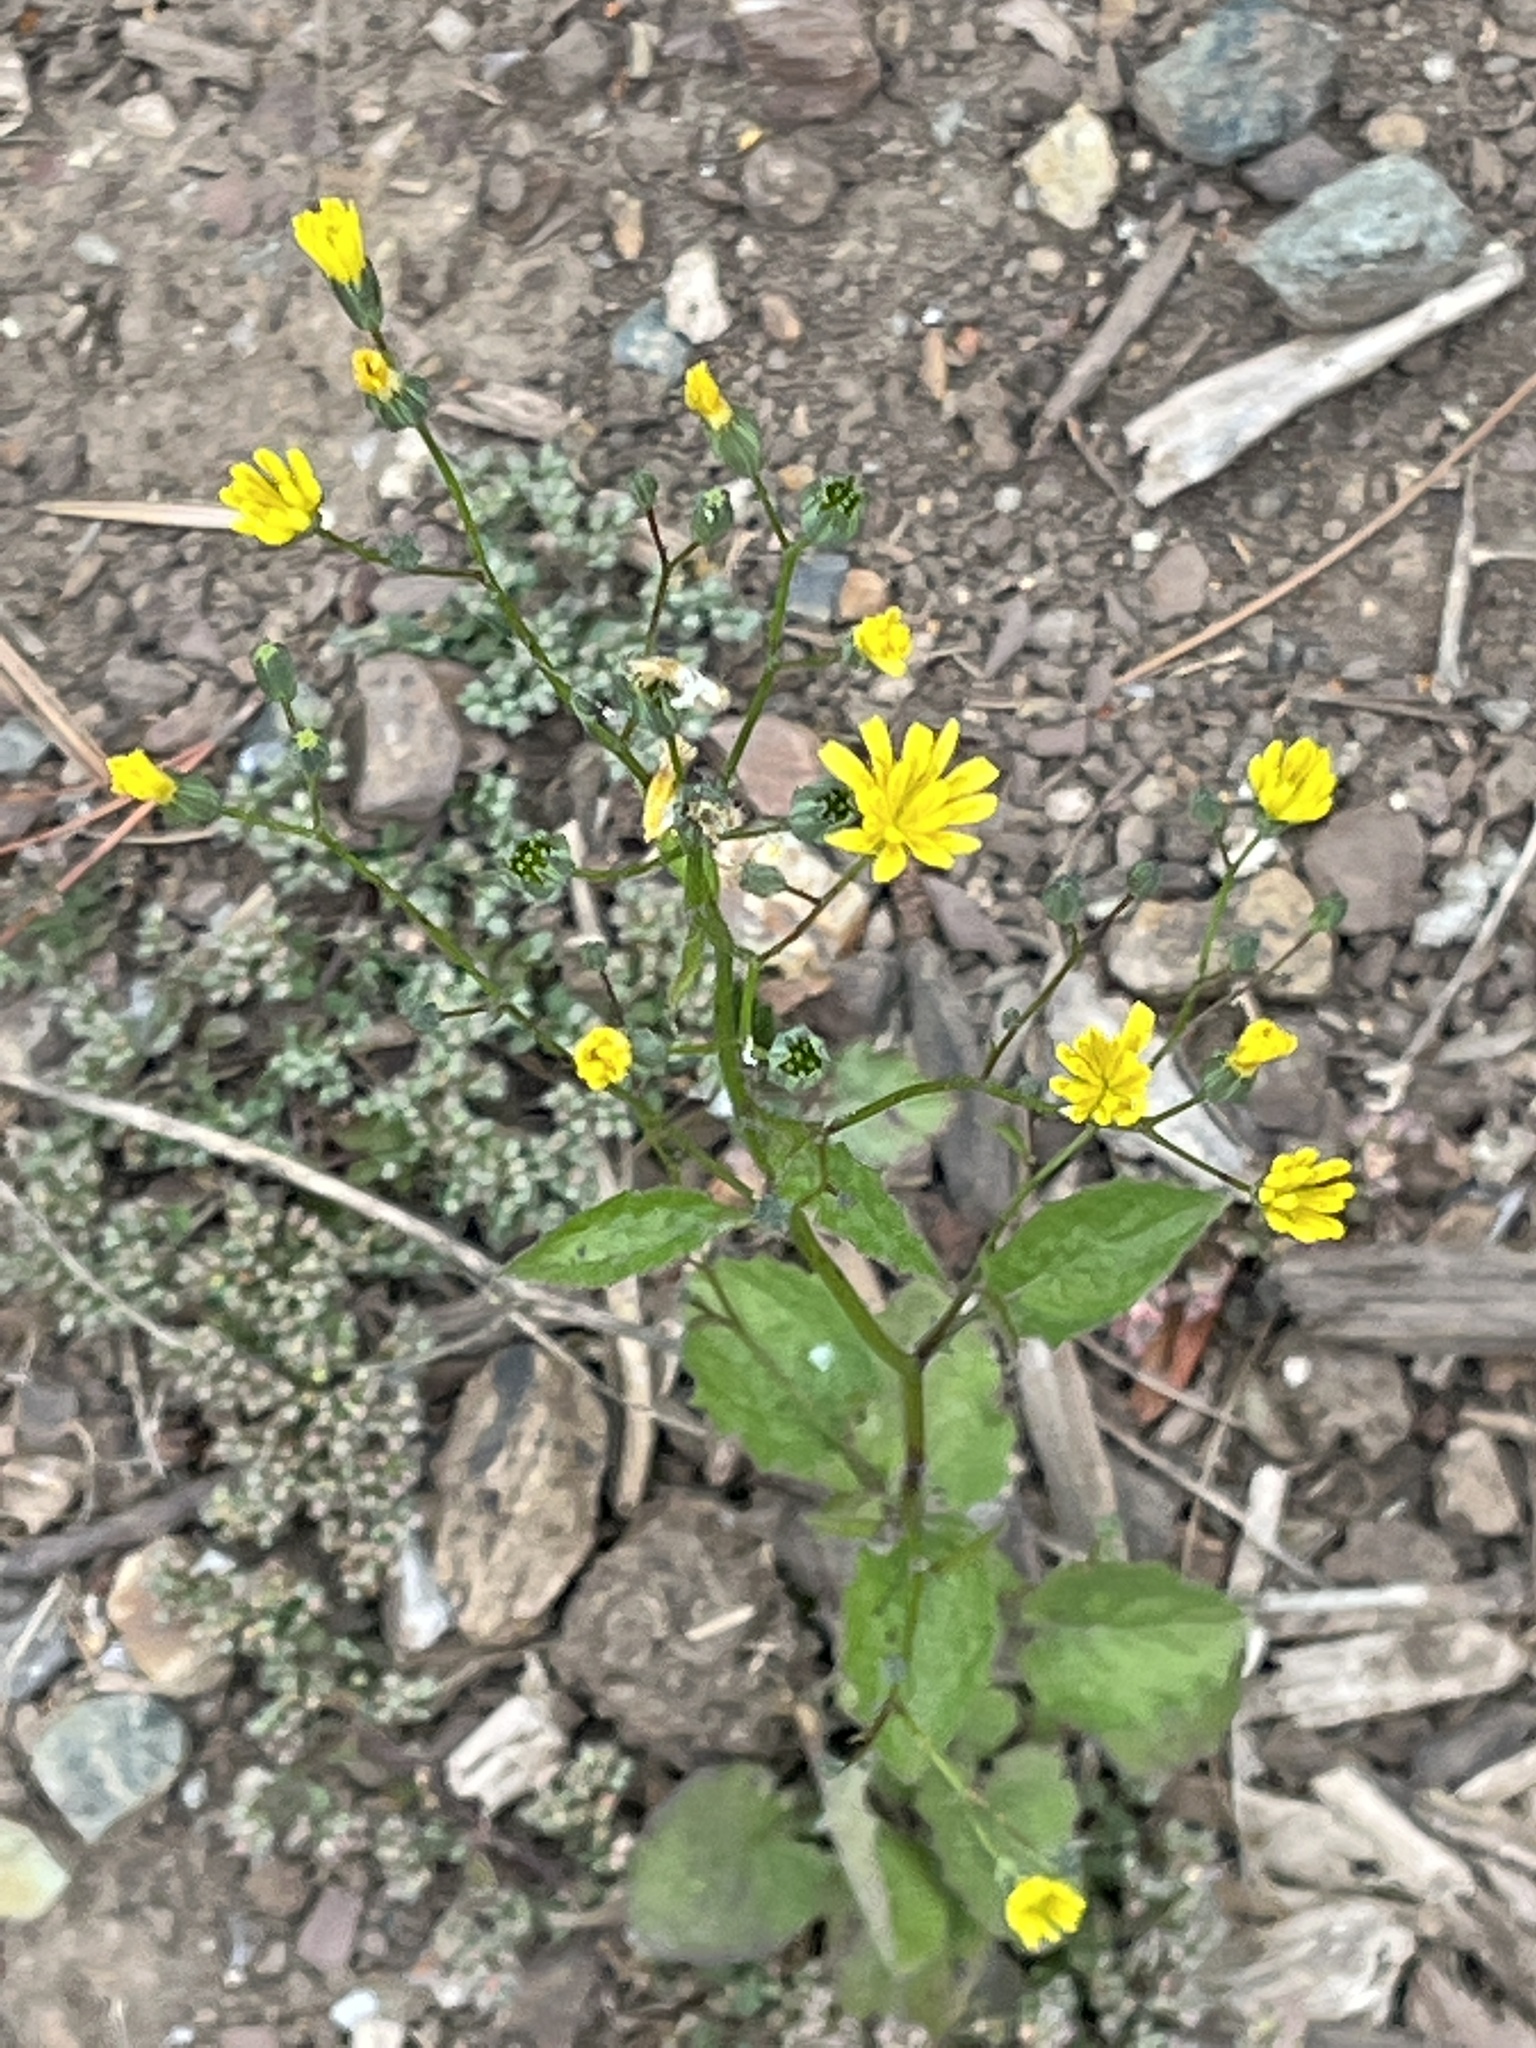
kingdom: Plantae
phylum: Tracheophyta
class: Magnoliopsida
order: Asterales
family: Asteraceae
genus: Lapsana
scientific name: Lapsana communis
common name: Nipplewort
